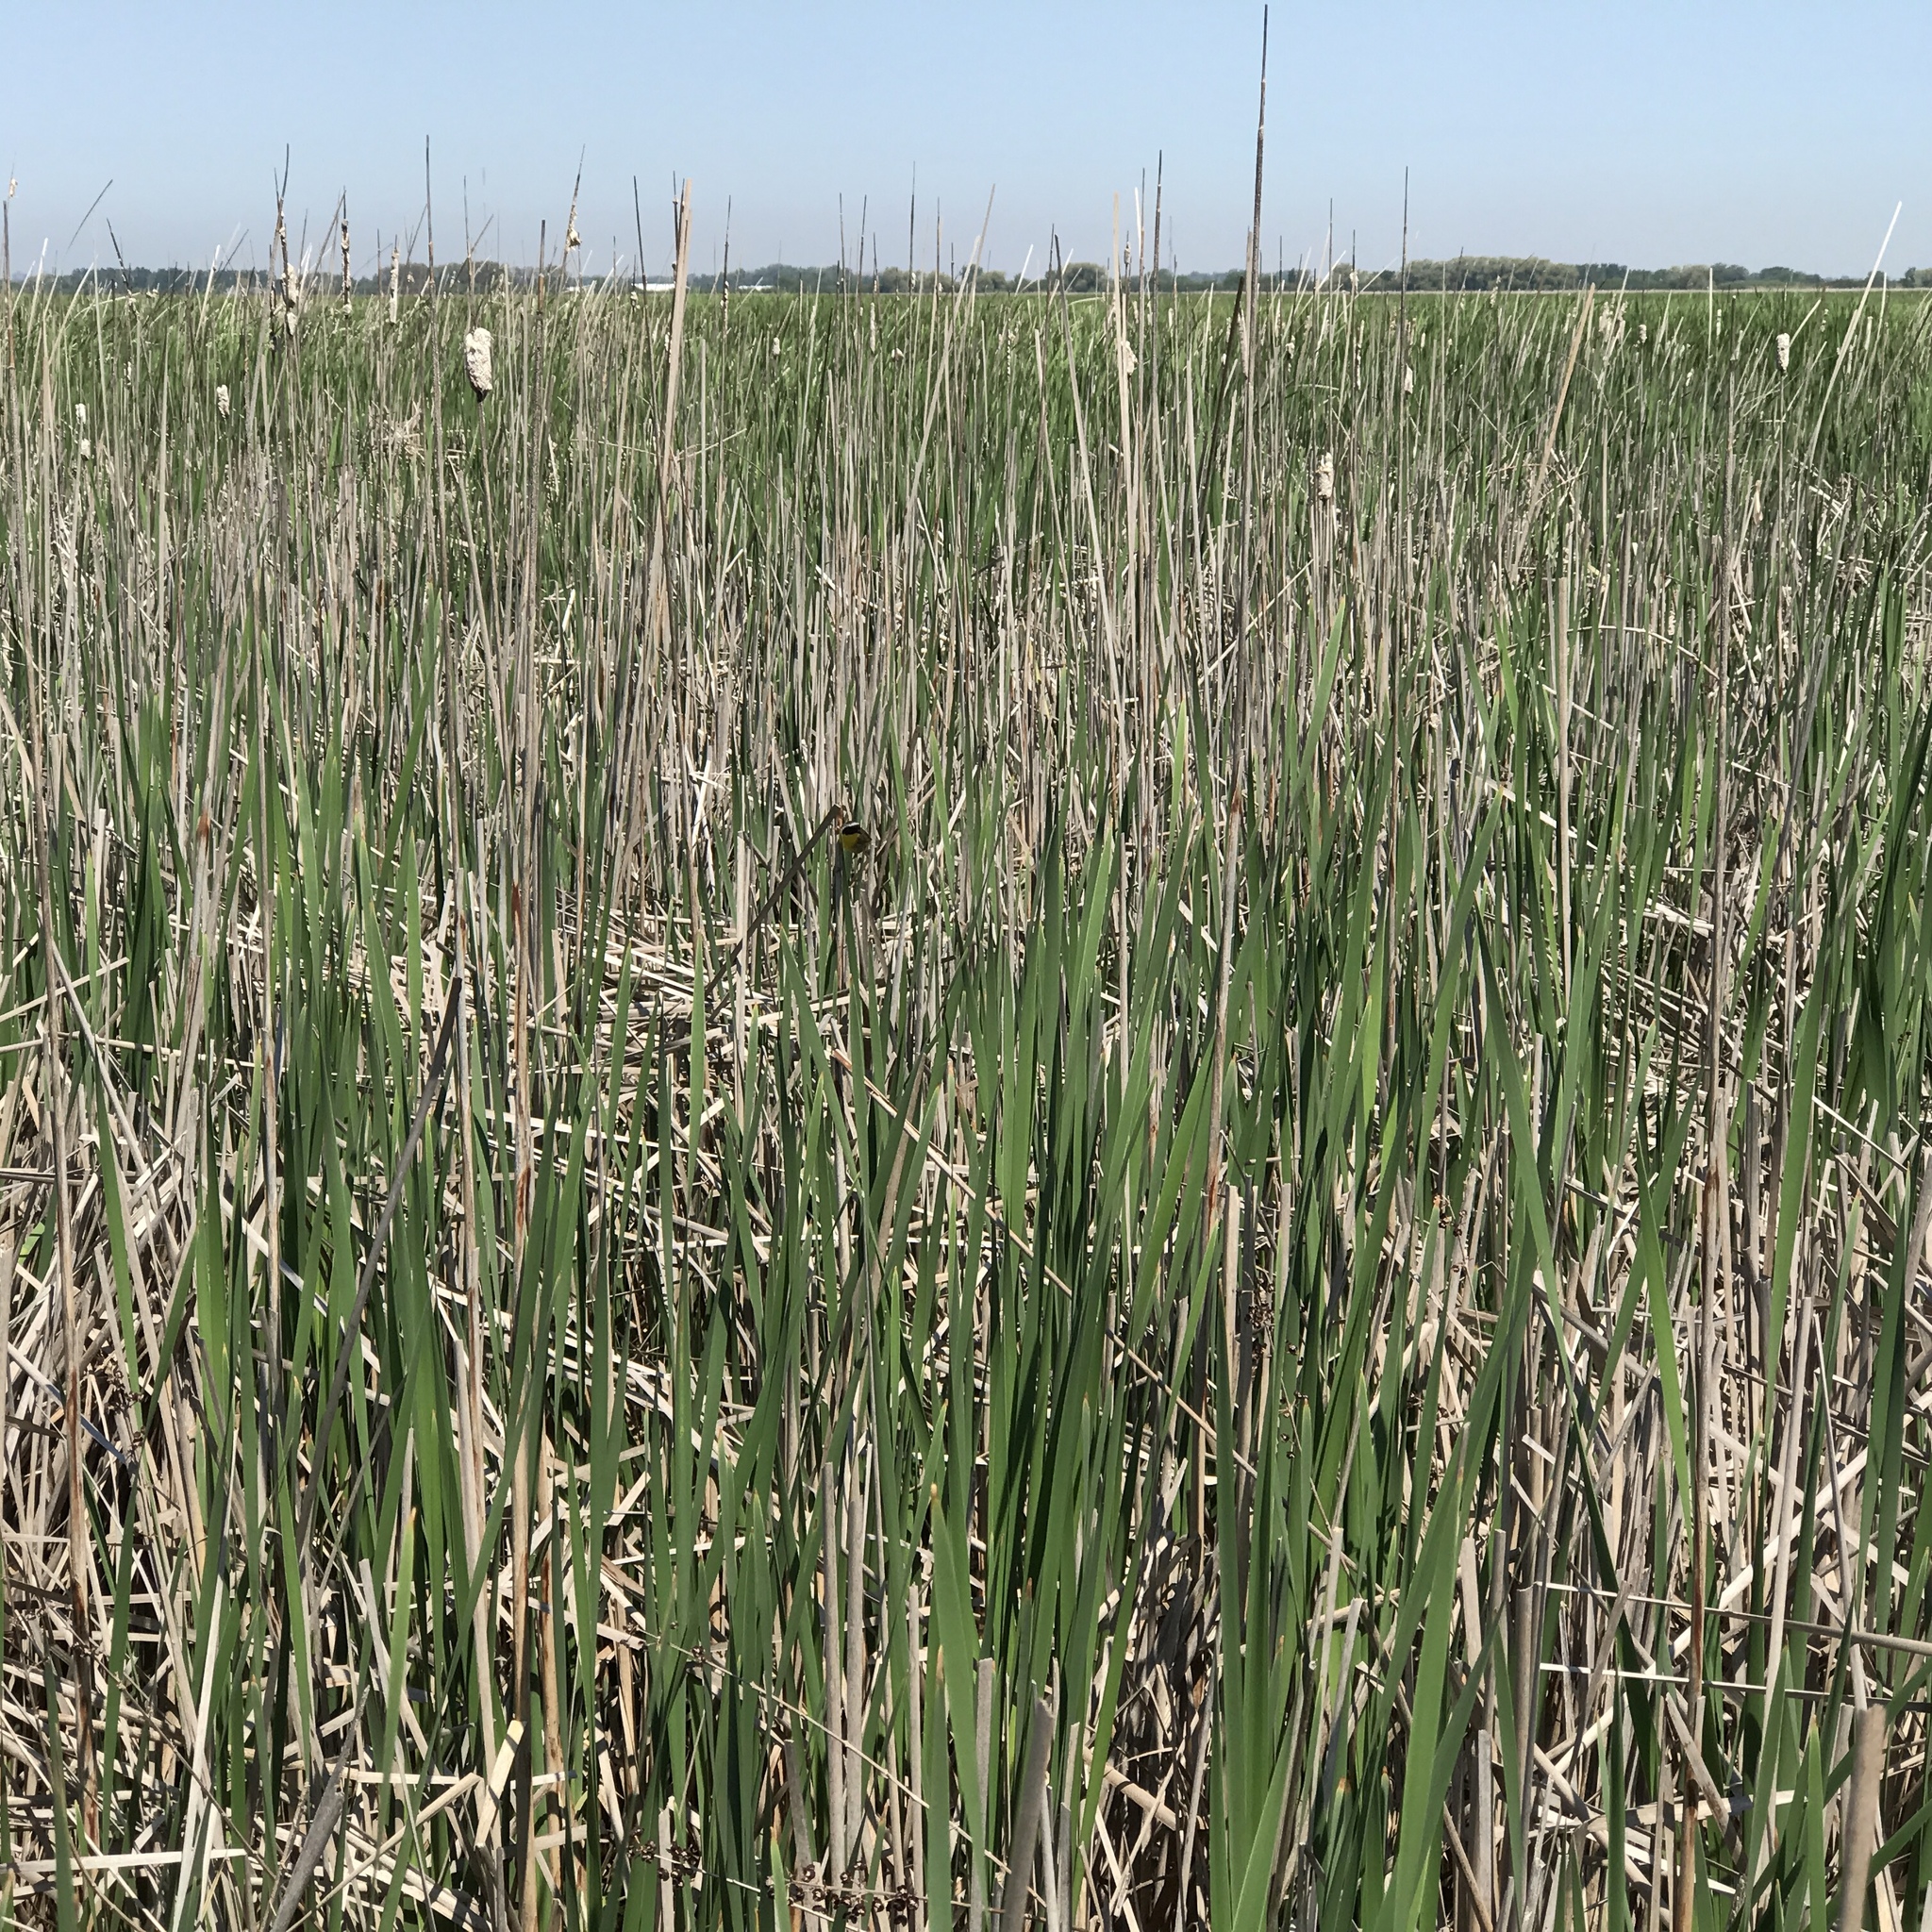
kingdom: Plantae
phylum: Tracheophyta
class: Liliopsida
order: Poales
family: Typhaceae
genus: Typha
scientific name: Typha angustifolia
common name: Lesser bulrush
